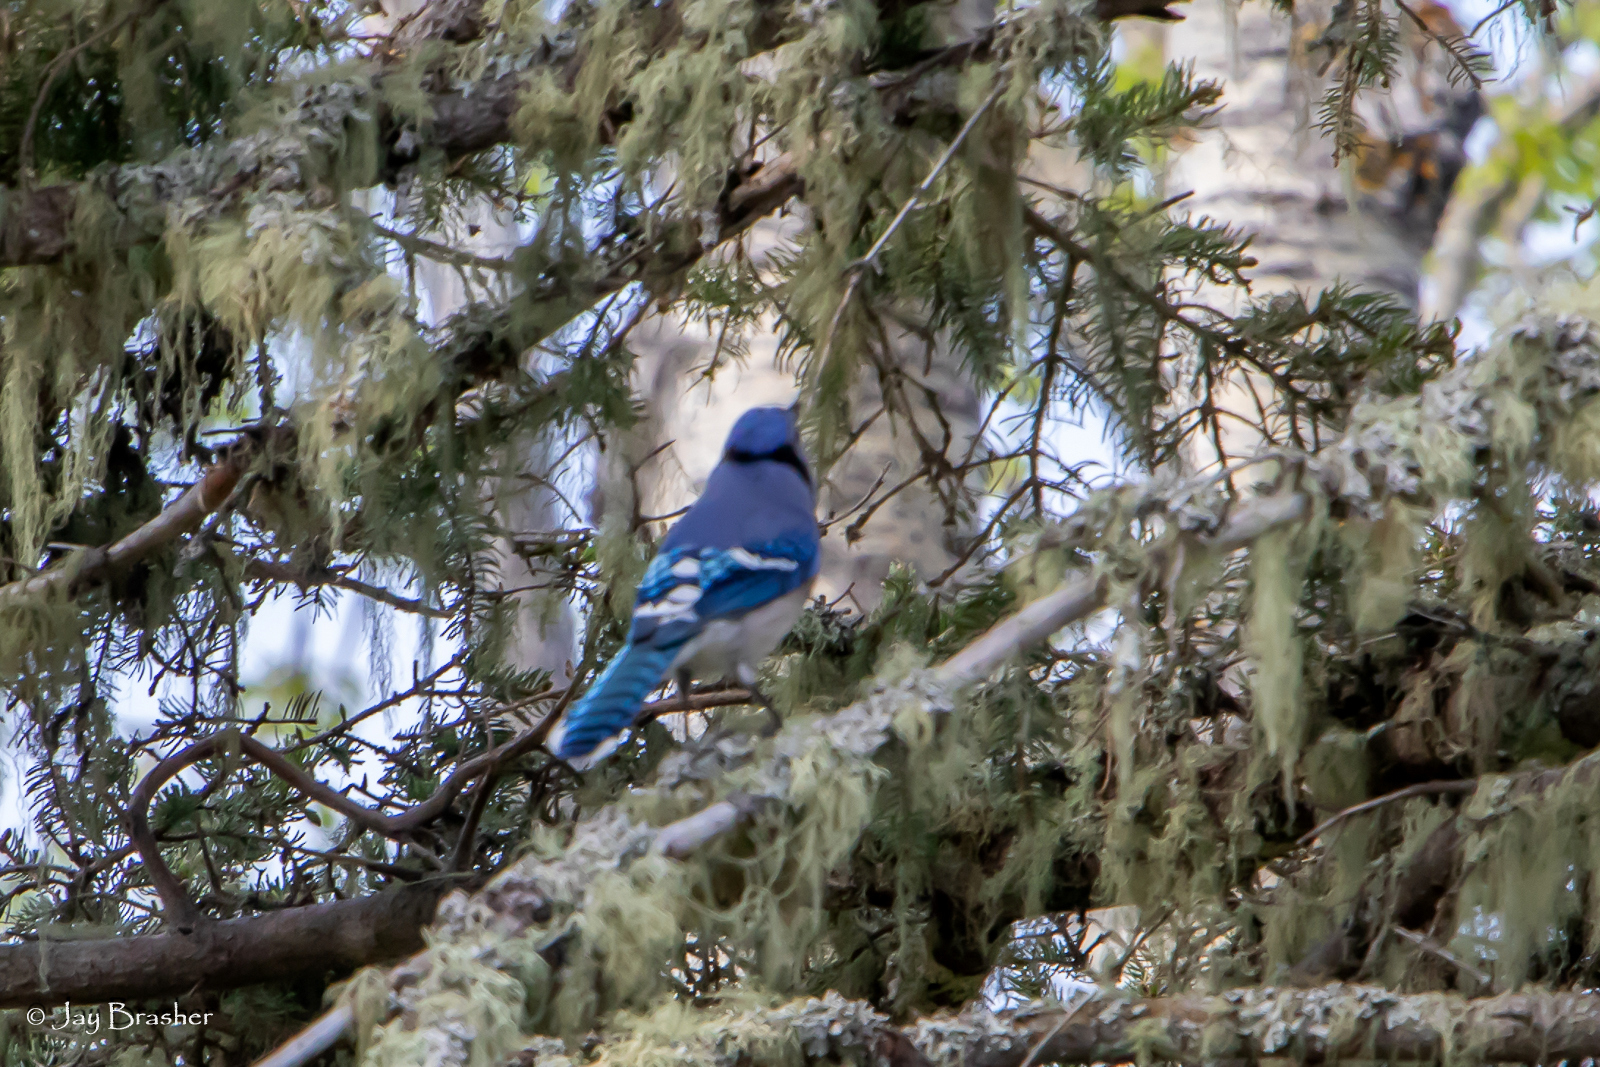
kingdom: Animalia
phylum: Chordata
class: Aves
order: Passeriformes
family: Corvidae
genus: Cyanocitta
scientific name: Cyanocitta cristata
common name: Blue jay
